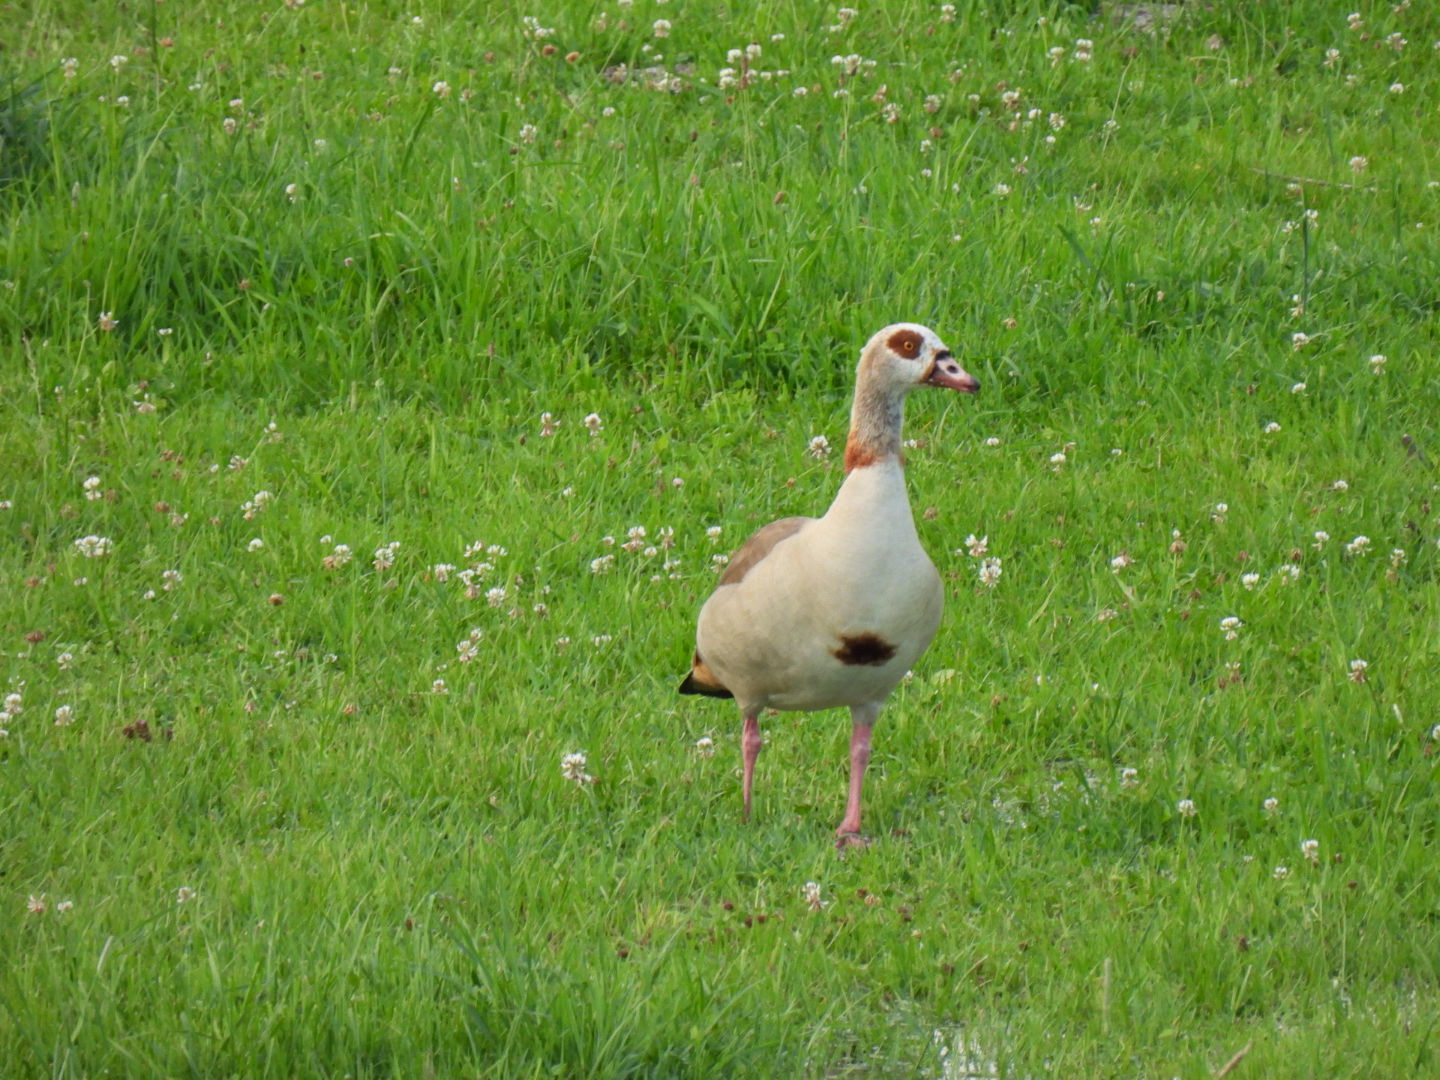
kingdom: Animalia
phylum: Chordata
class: Aves
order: Anseriformes
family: Anatidae
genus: Alopochen
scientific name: Alopochen aegyptiaca
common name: Egyptian goose
